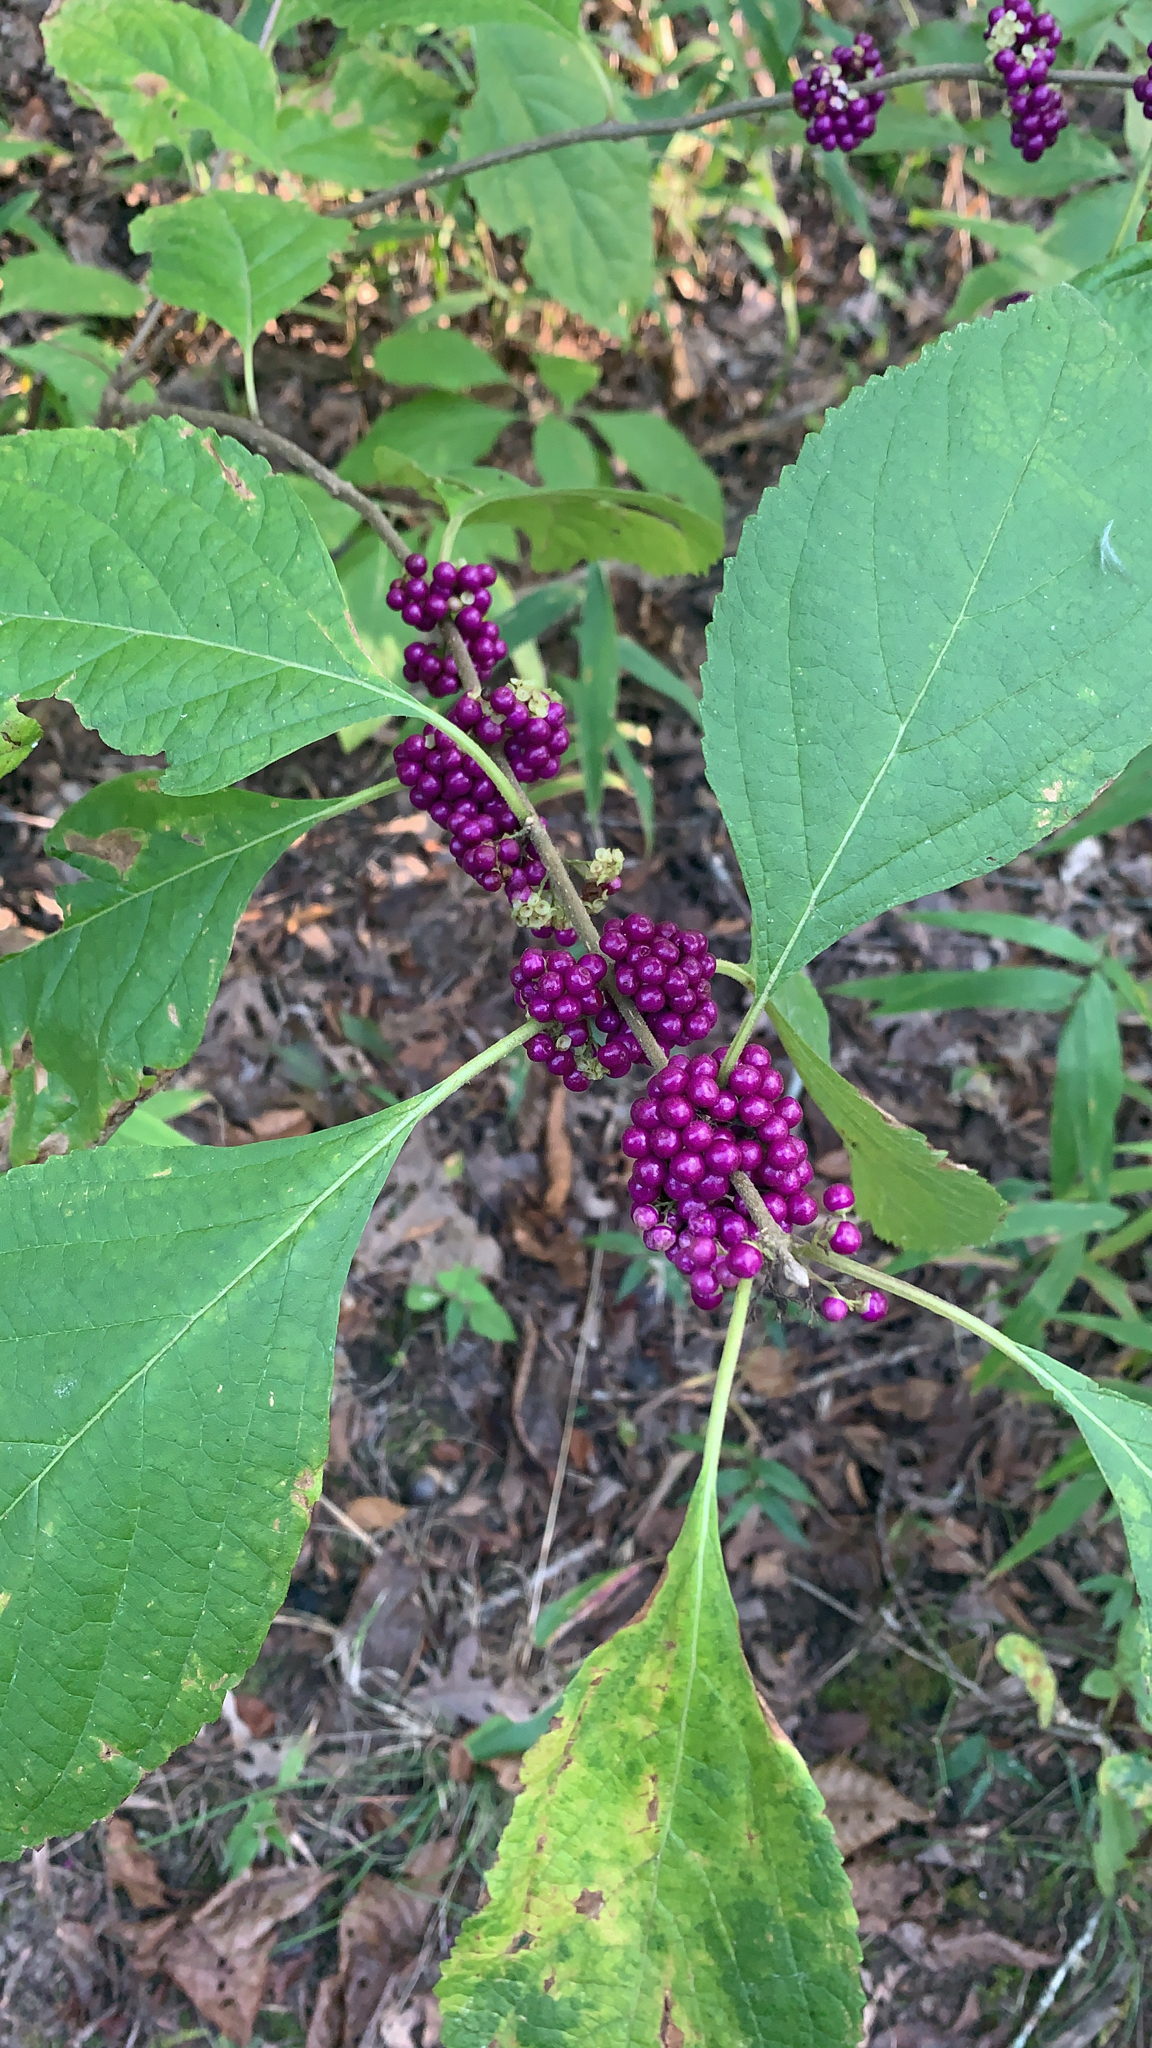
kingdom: Plantae
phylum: Tracheophyta
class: Magnoliopsida
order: Lamiales
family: Lamiaceae
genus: Callicarpa
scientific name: Callicarpa americana
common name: American beautyberry
